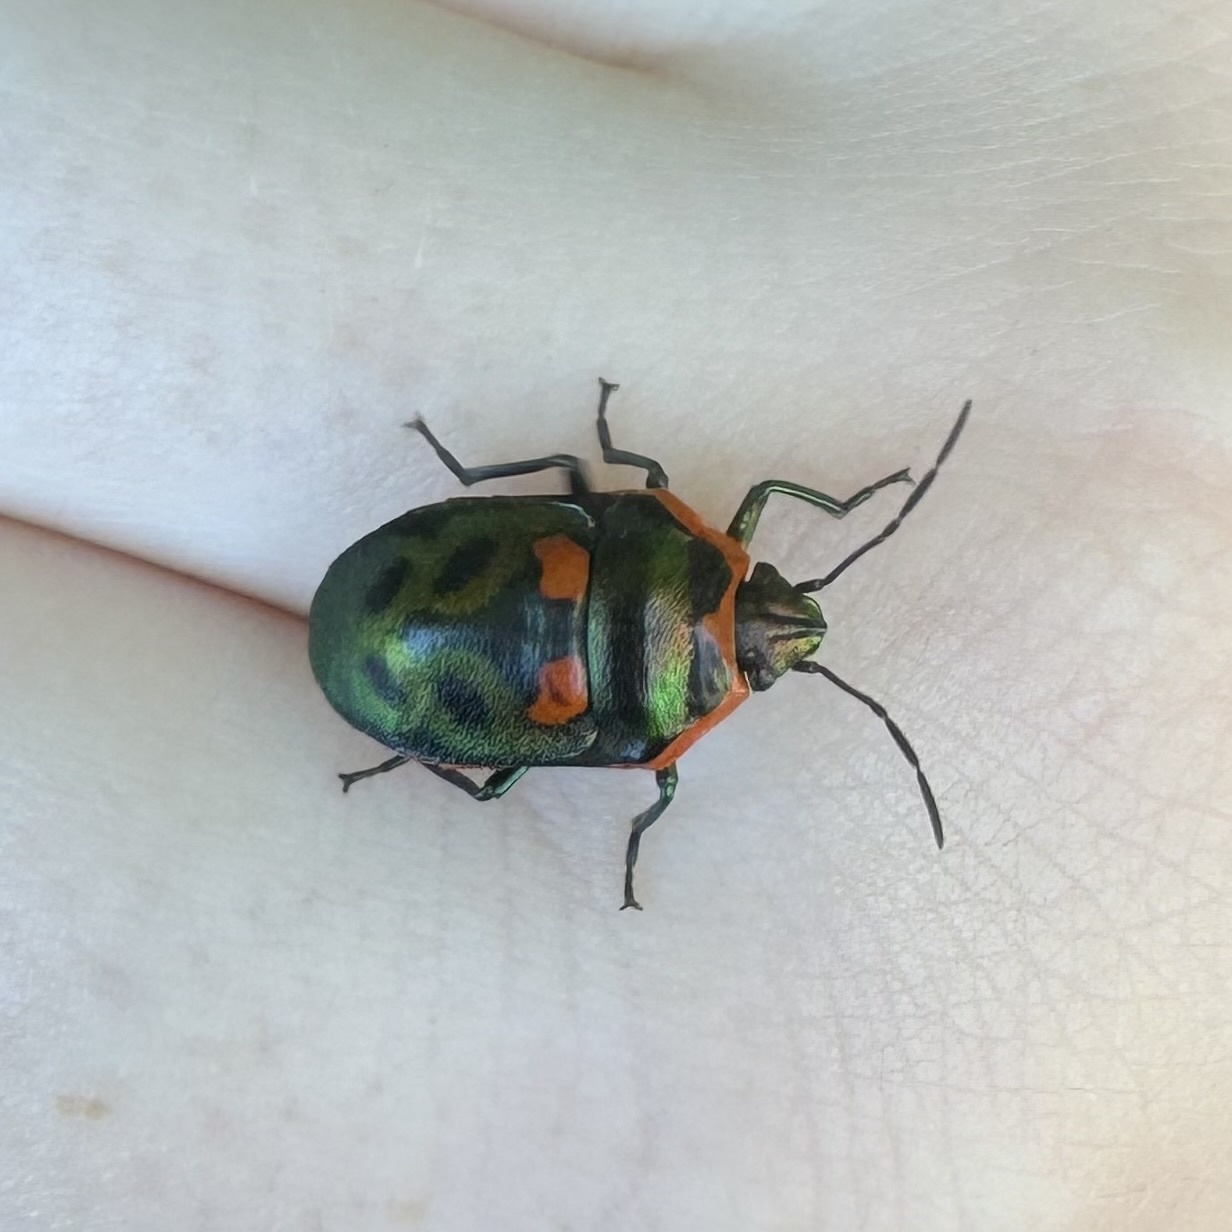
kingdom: Animalia
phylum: Arthropoda
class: Insecta
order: Hemiptera
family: Scutelleridae
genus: Scutiphora
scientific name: Scutiphora pedicellata
